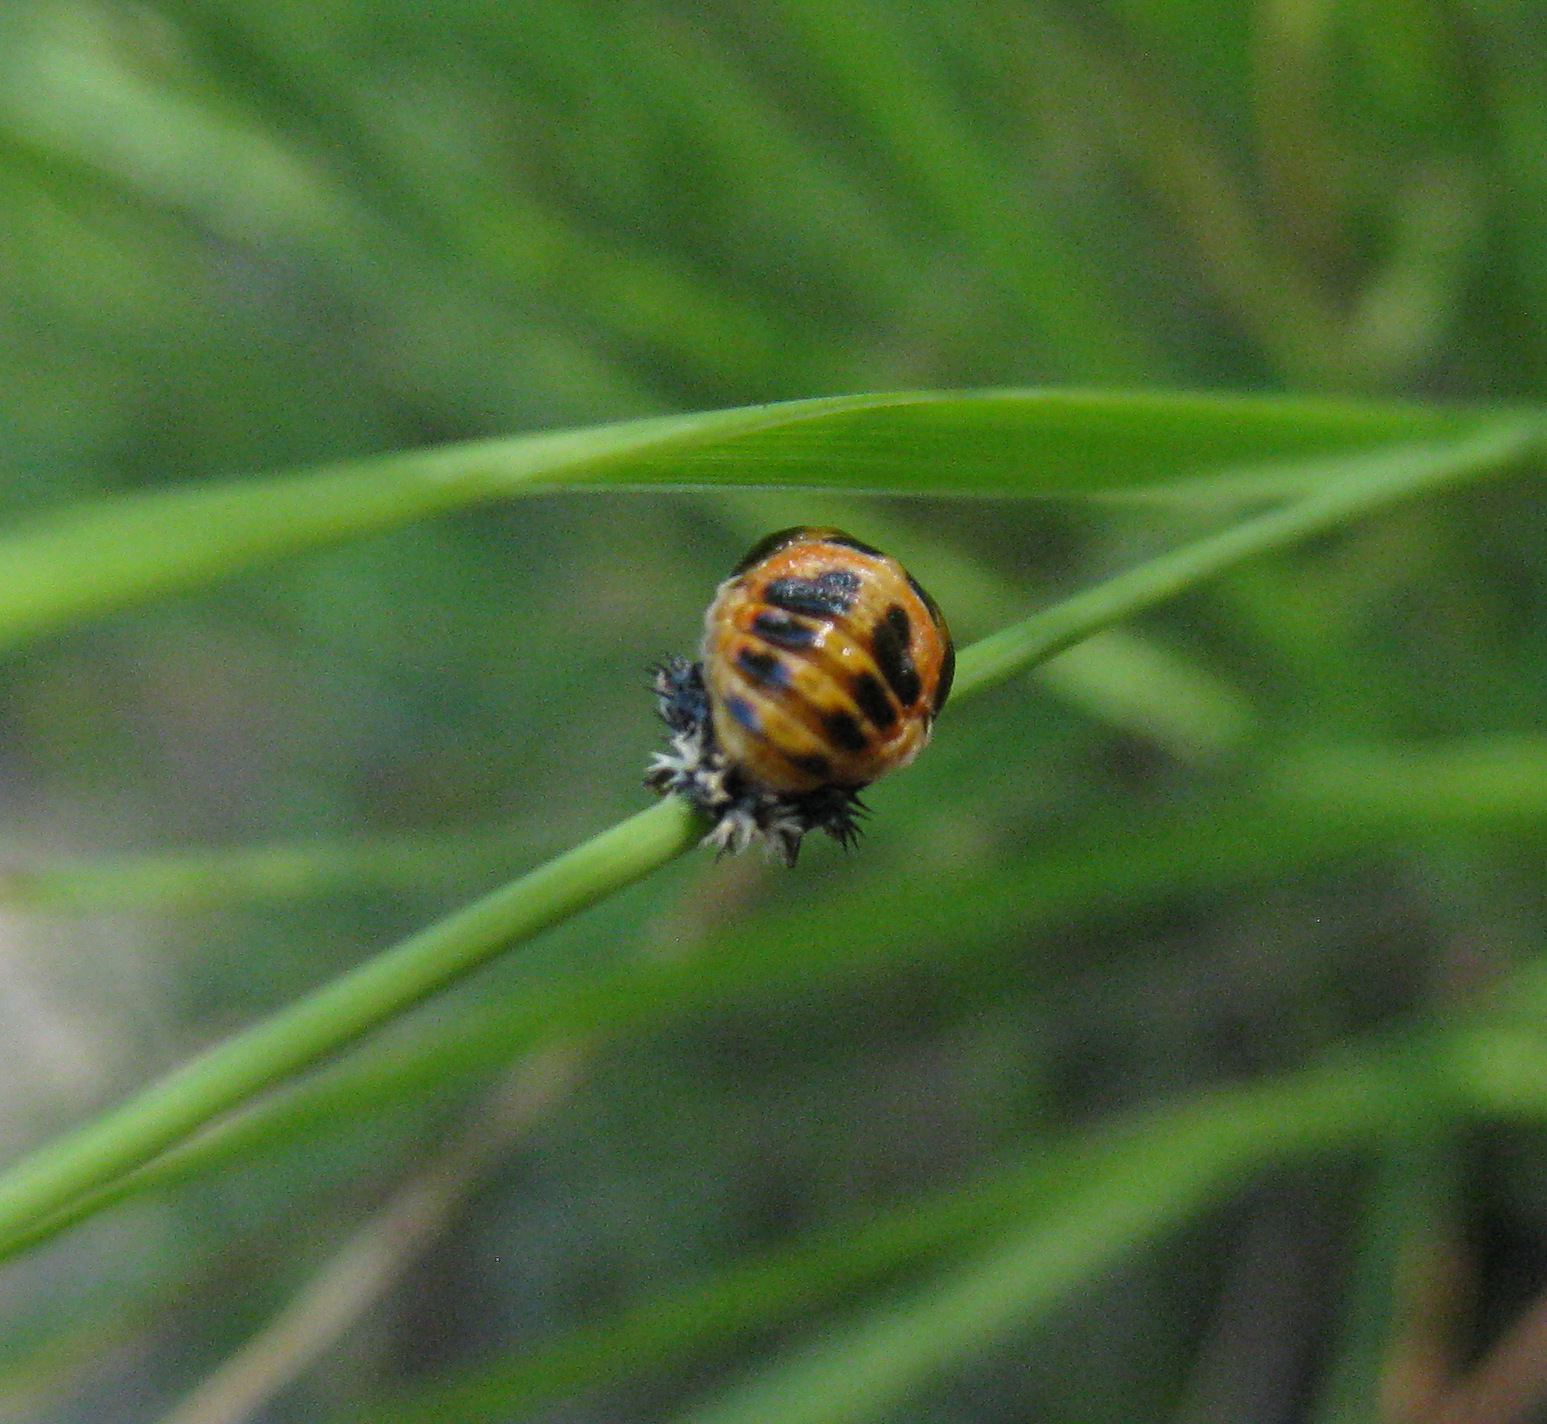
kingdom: Animalia
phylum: Arthropoda
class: Insecta
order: Coleoptera
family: Coccinellidae
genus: Harmonia
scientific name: Harmonia axyridis
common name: Harlequin ladybird
